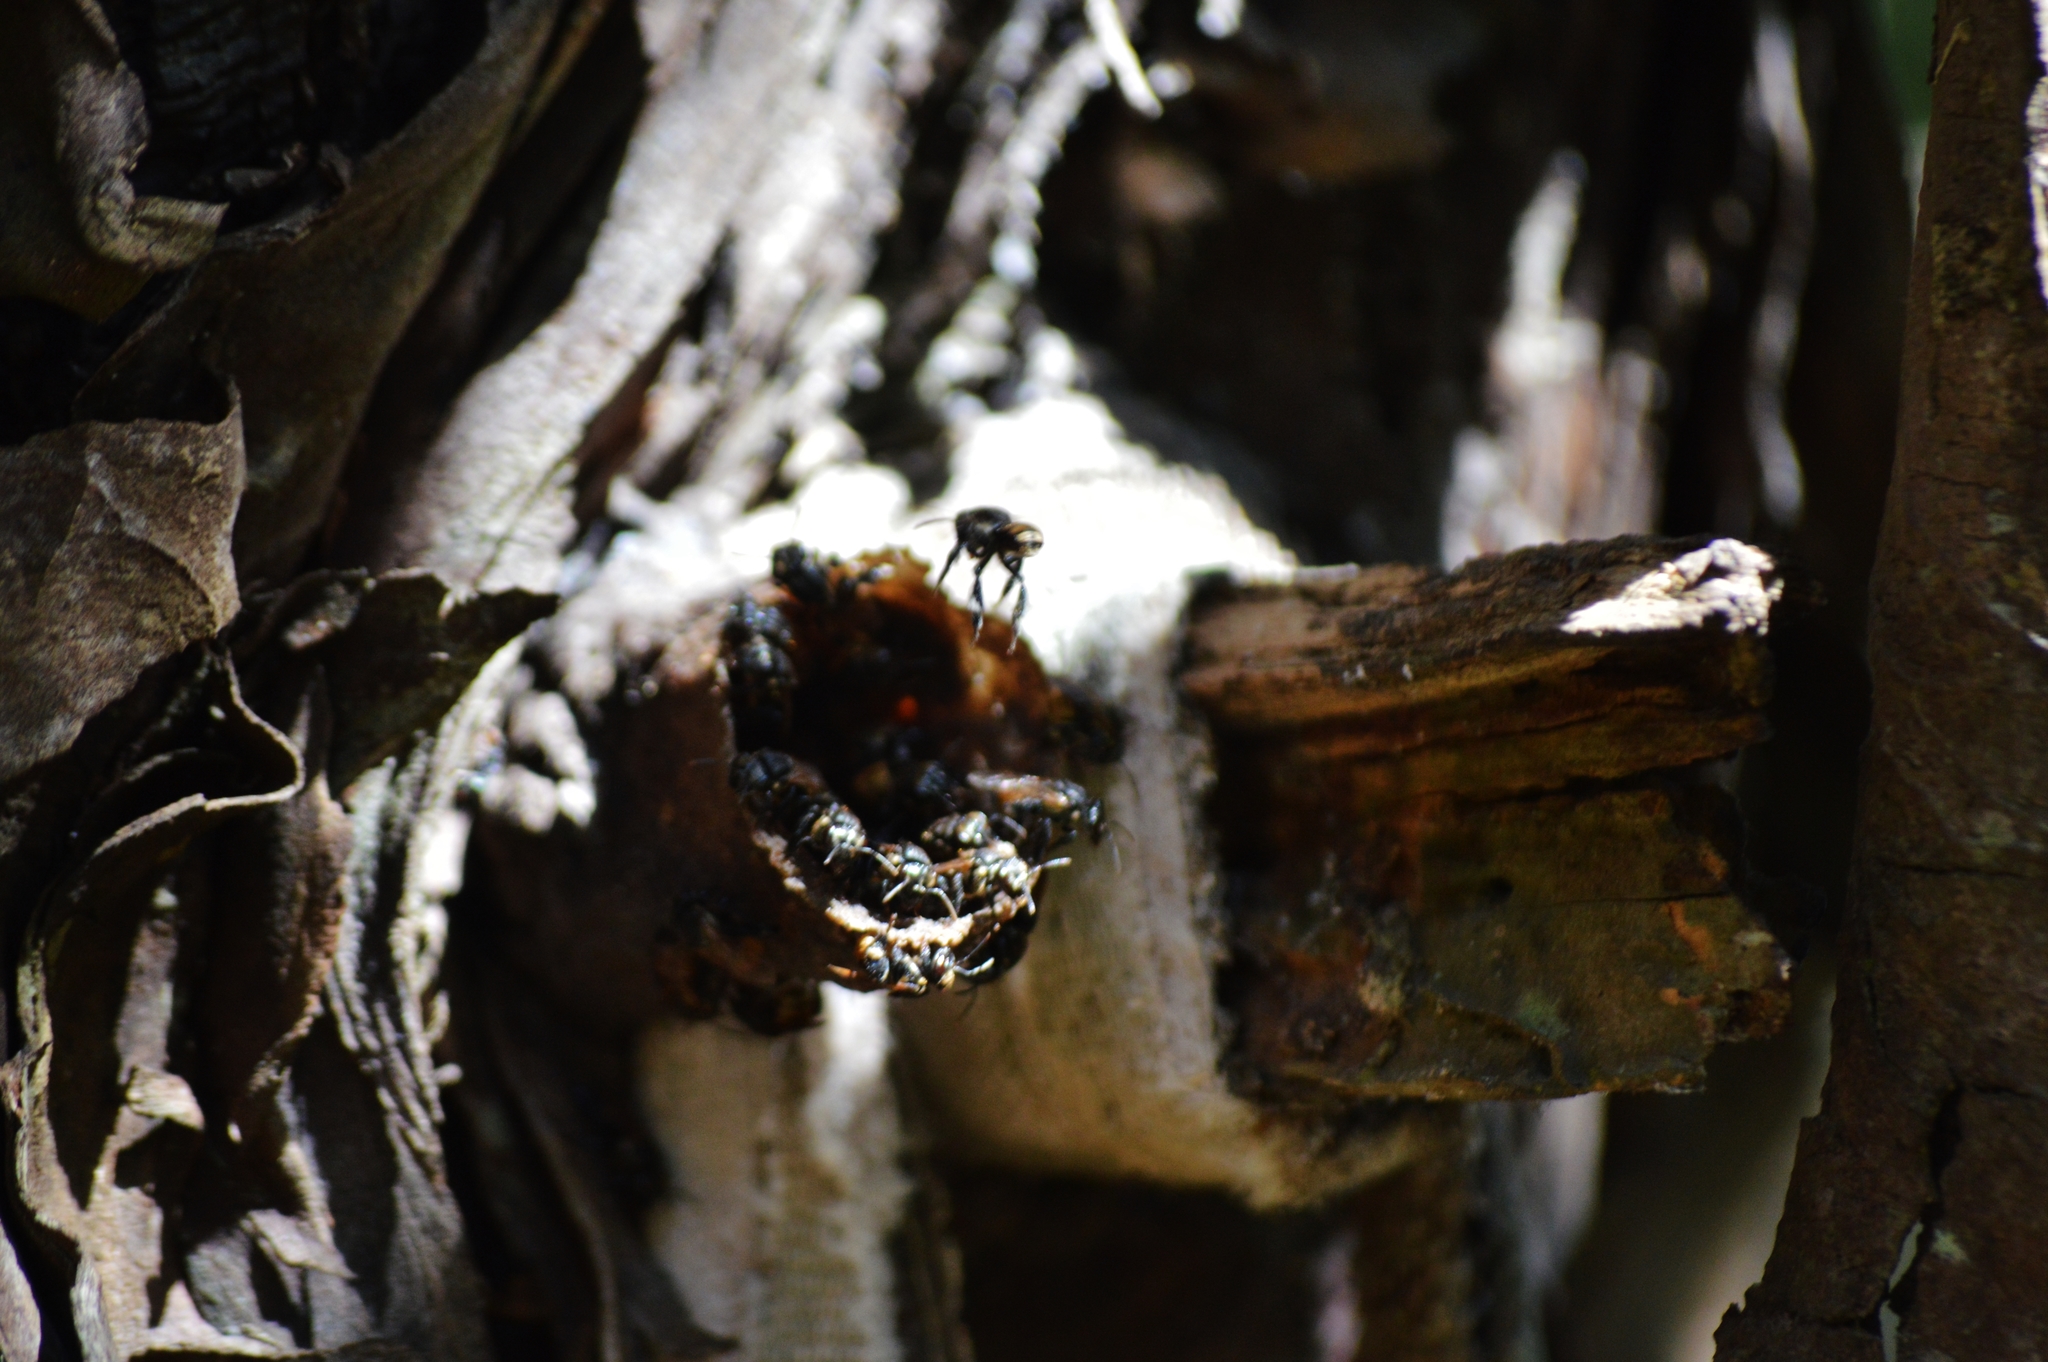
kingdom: Animalia
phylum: Arthropoda
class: Insecta
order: Hymenoptera
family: Apidae
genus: Scaptotrigona
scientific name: Scaptotrigona postica
